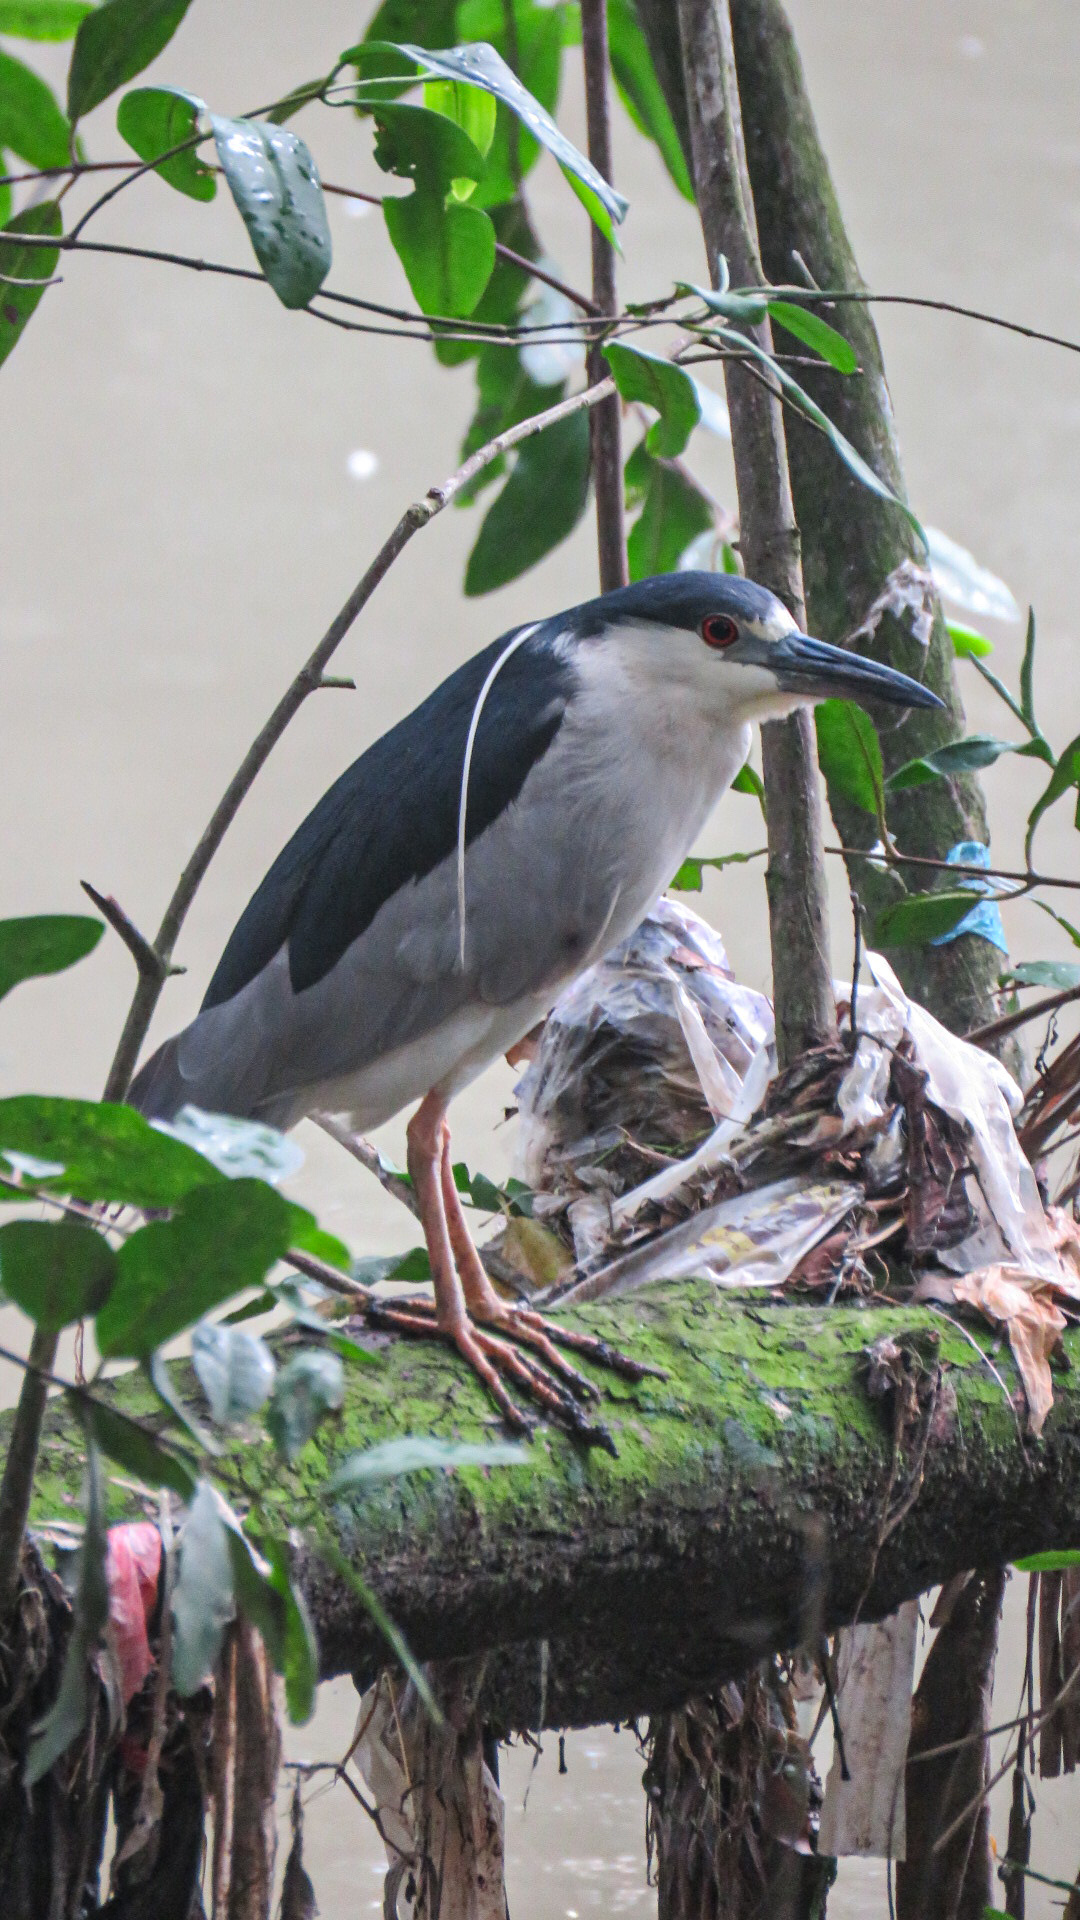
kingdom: Animalia
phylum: Chordata
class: Aves
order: Pelecaniformes
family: Ardeidae
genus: Nycticorax
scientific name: Nycticorax nycticorax
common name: Black-crowned night heron
